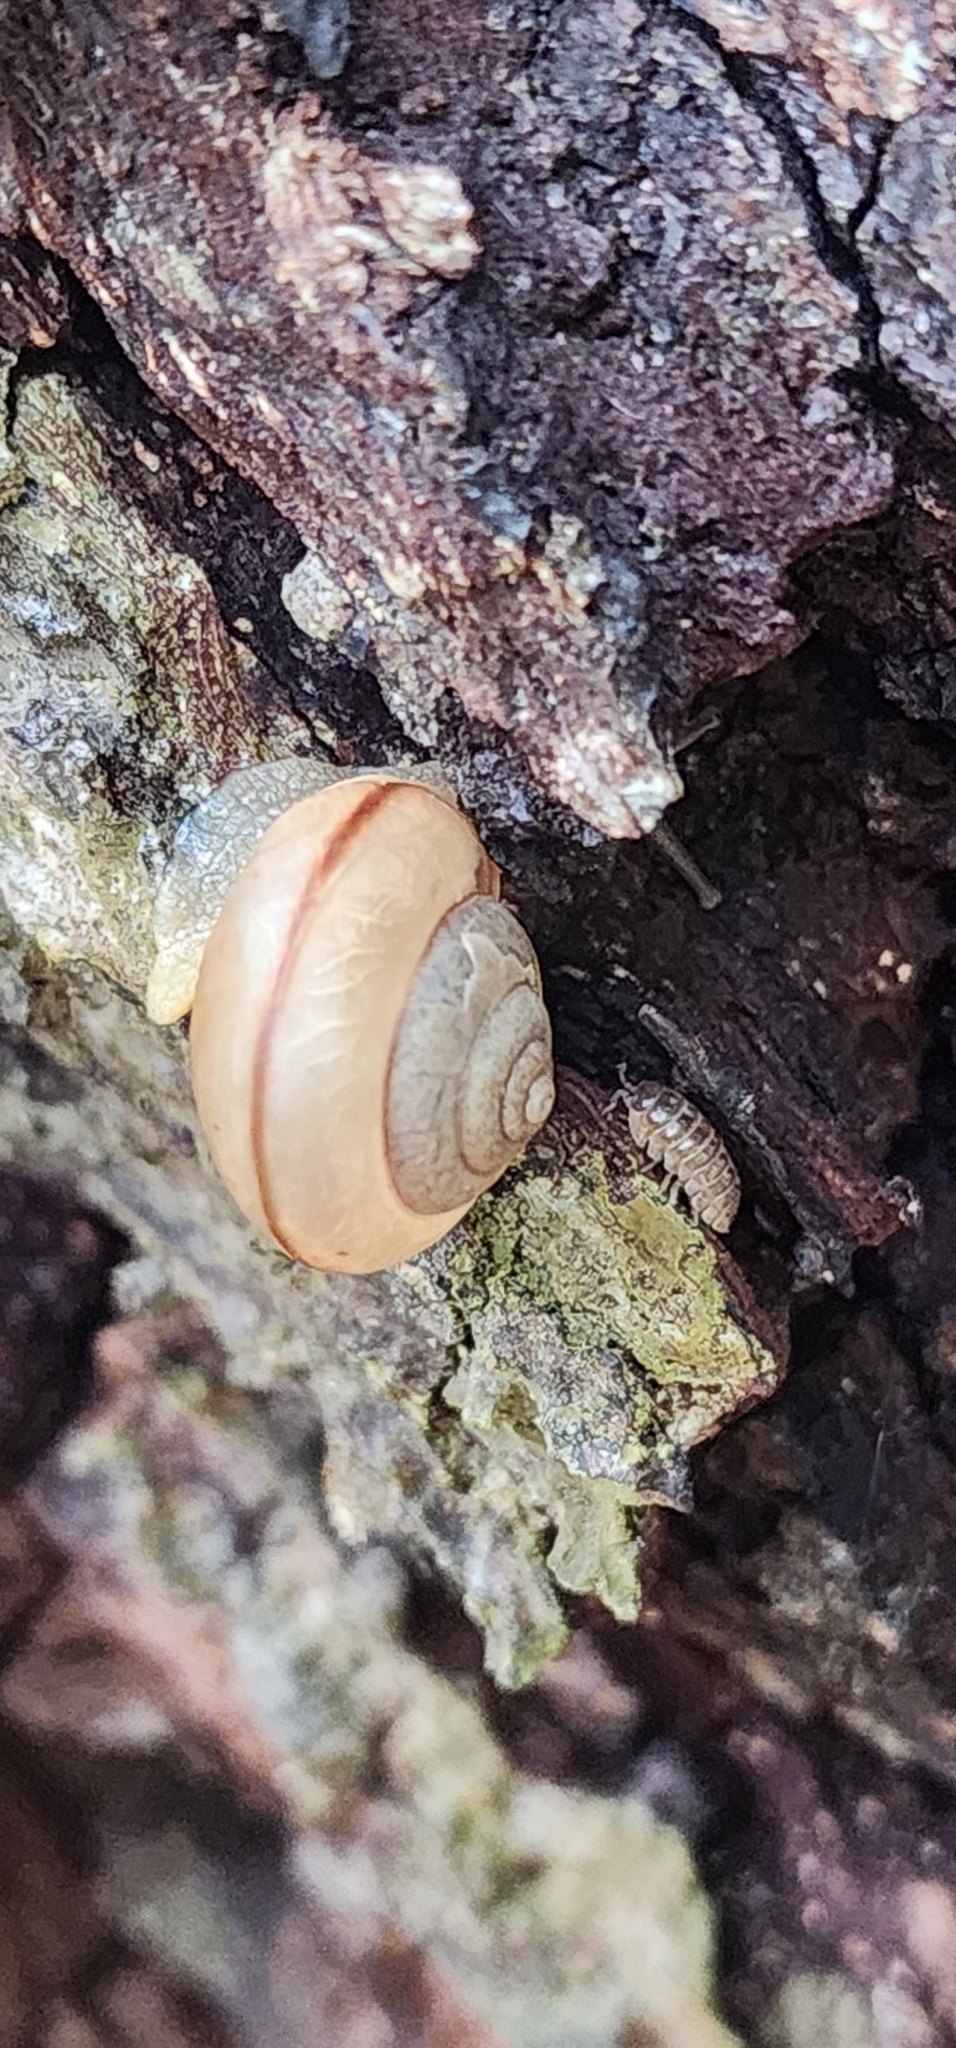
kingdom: Animalia
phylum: Mollusca
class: Gastropoda
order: Stylommatophora
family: Camaenidae
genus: Bradybaena
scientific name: Bradybaena similaris
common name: Asian trampsnail
